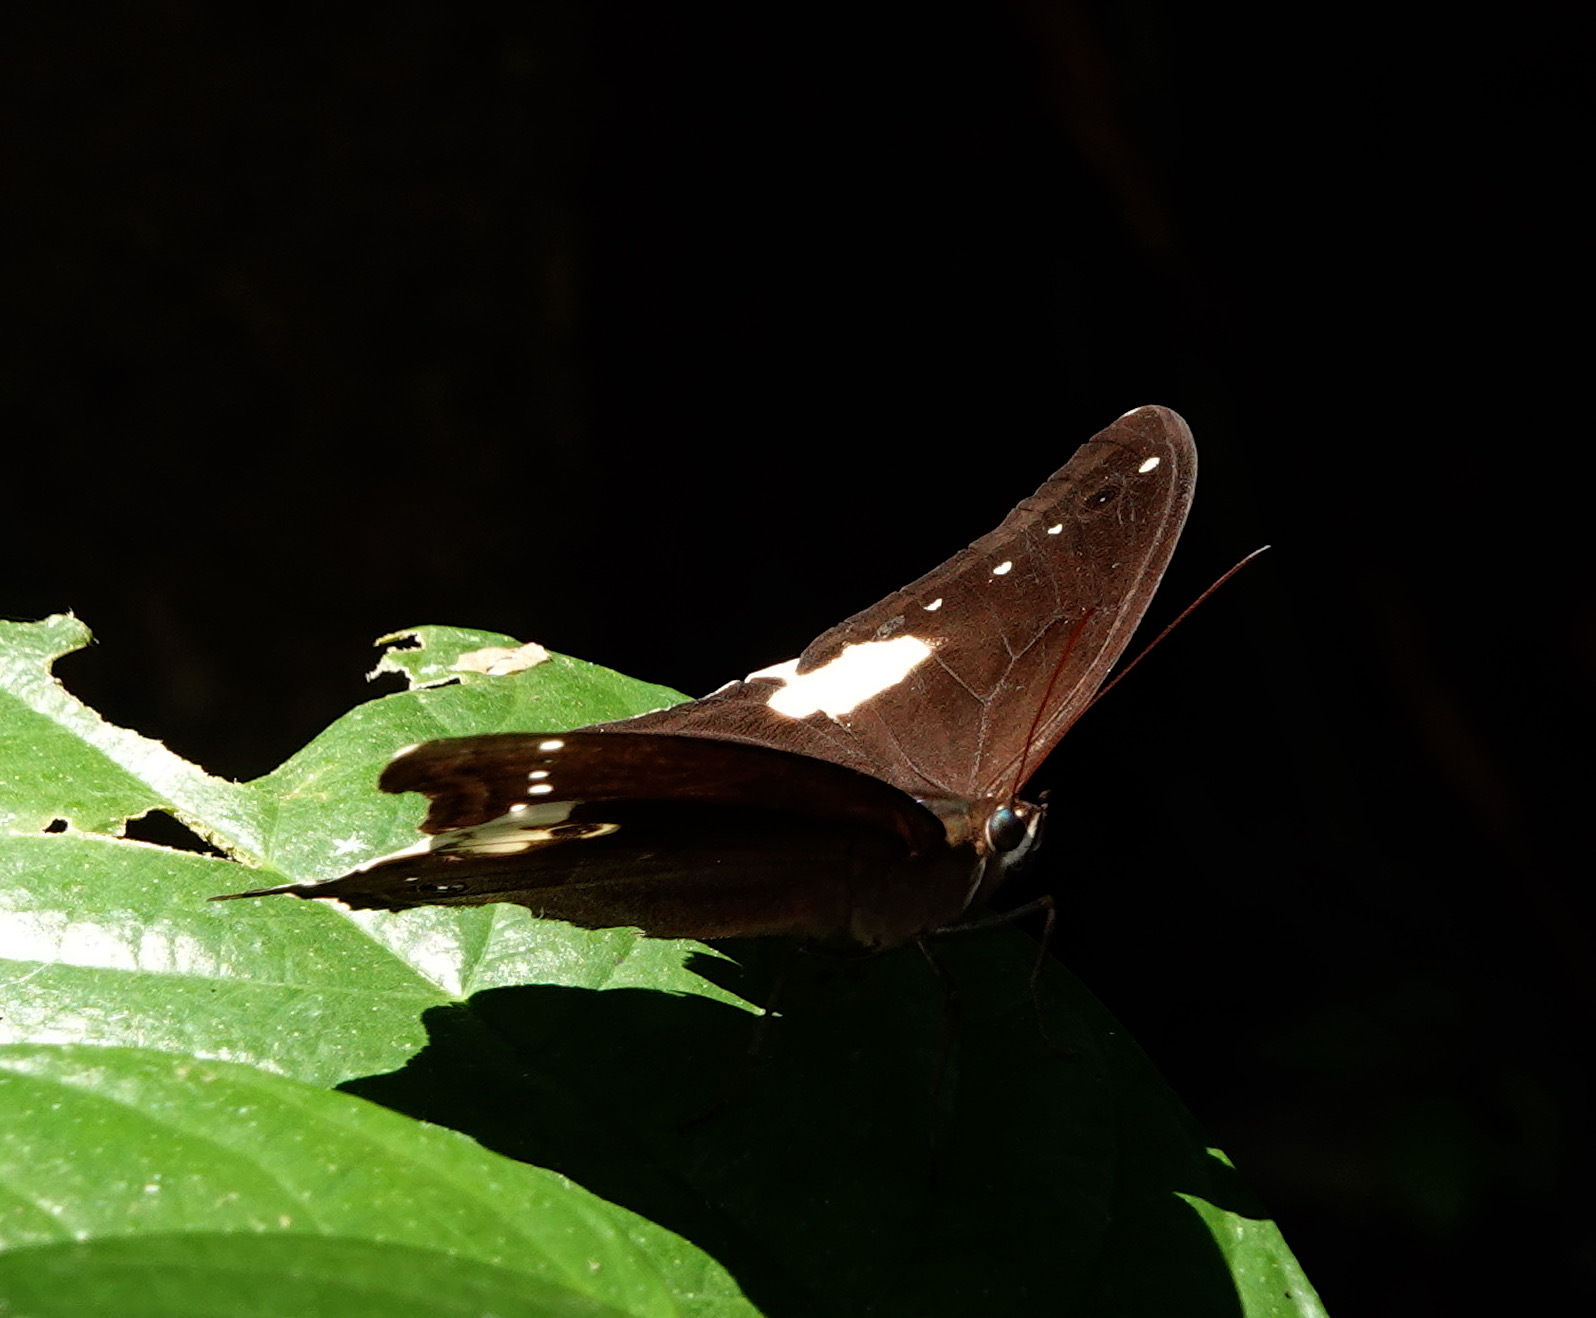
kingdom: Animalia
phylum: Arthropoda
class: Insecta
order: Lepidoptera
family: Nymphalidae
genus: Neorina
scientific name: Neorina lowii
